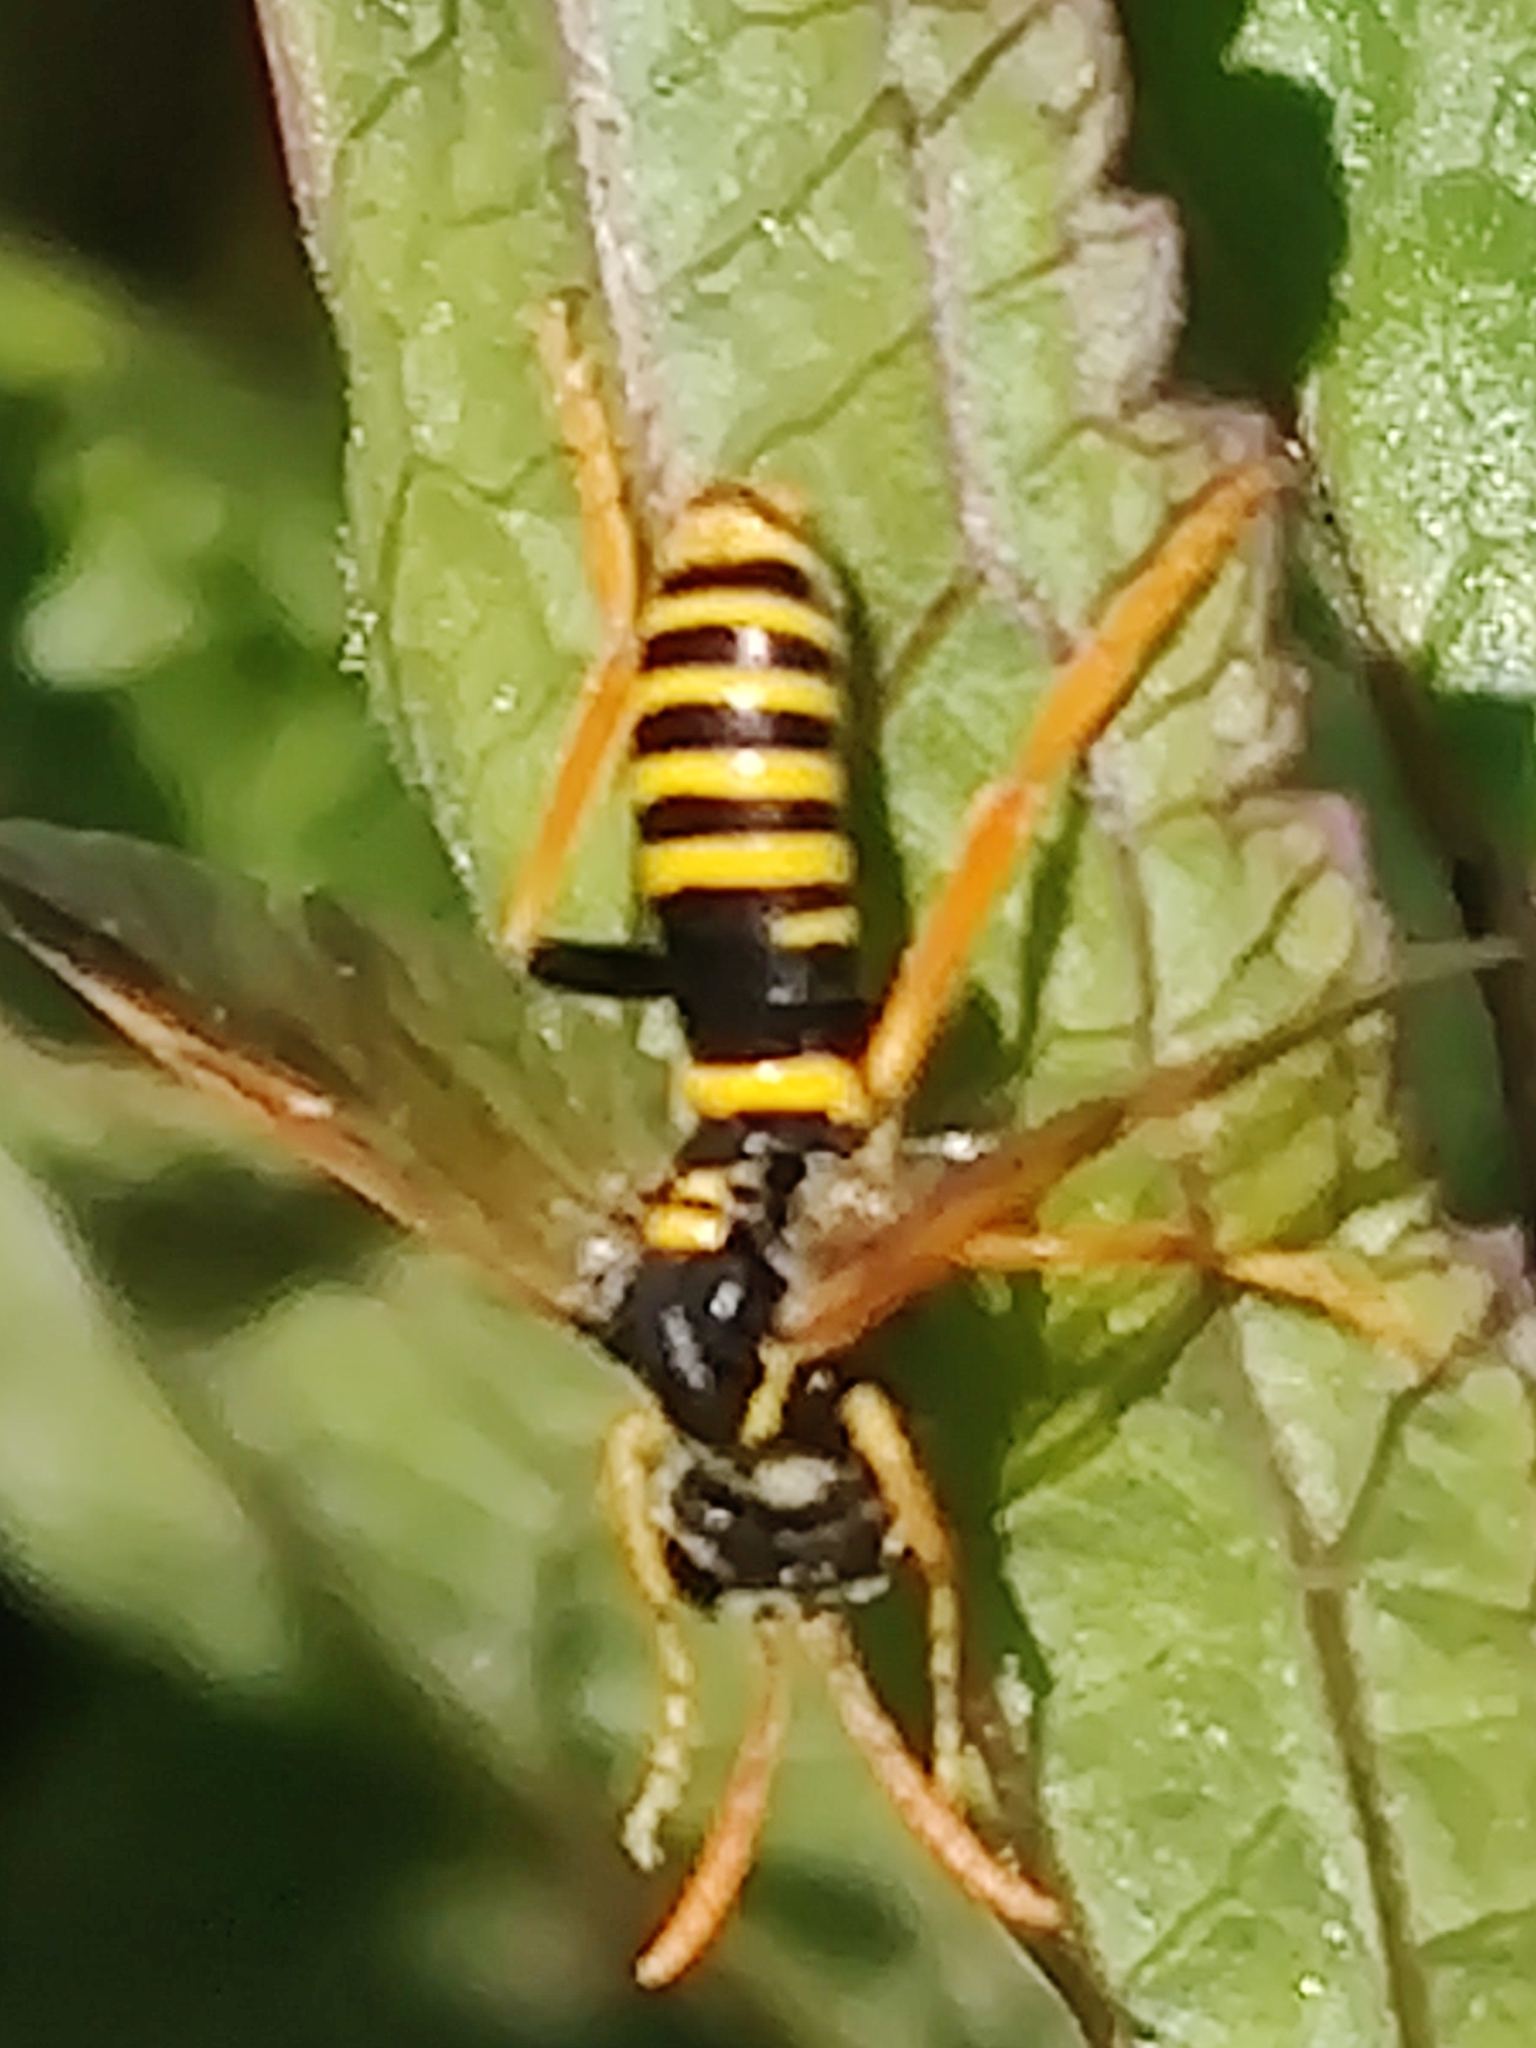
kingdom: Animalia
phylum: Arthropoda
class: Insecta
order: Hymenoptera
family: Tenthredinidae
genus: Tenthredo
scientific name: Tenthredo scrophulariae
